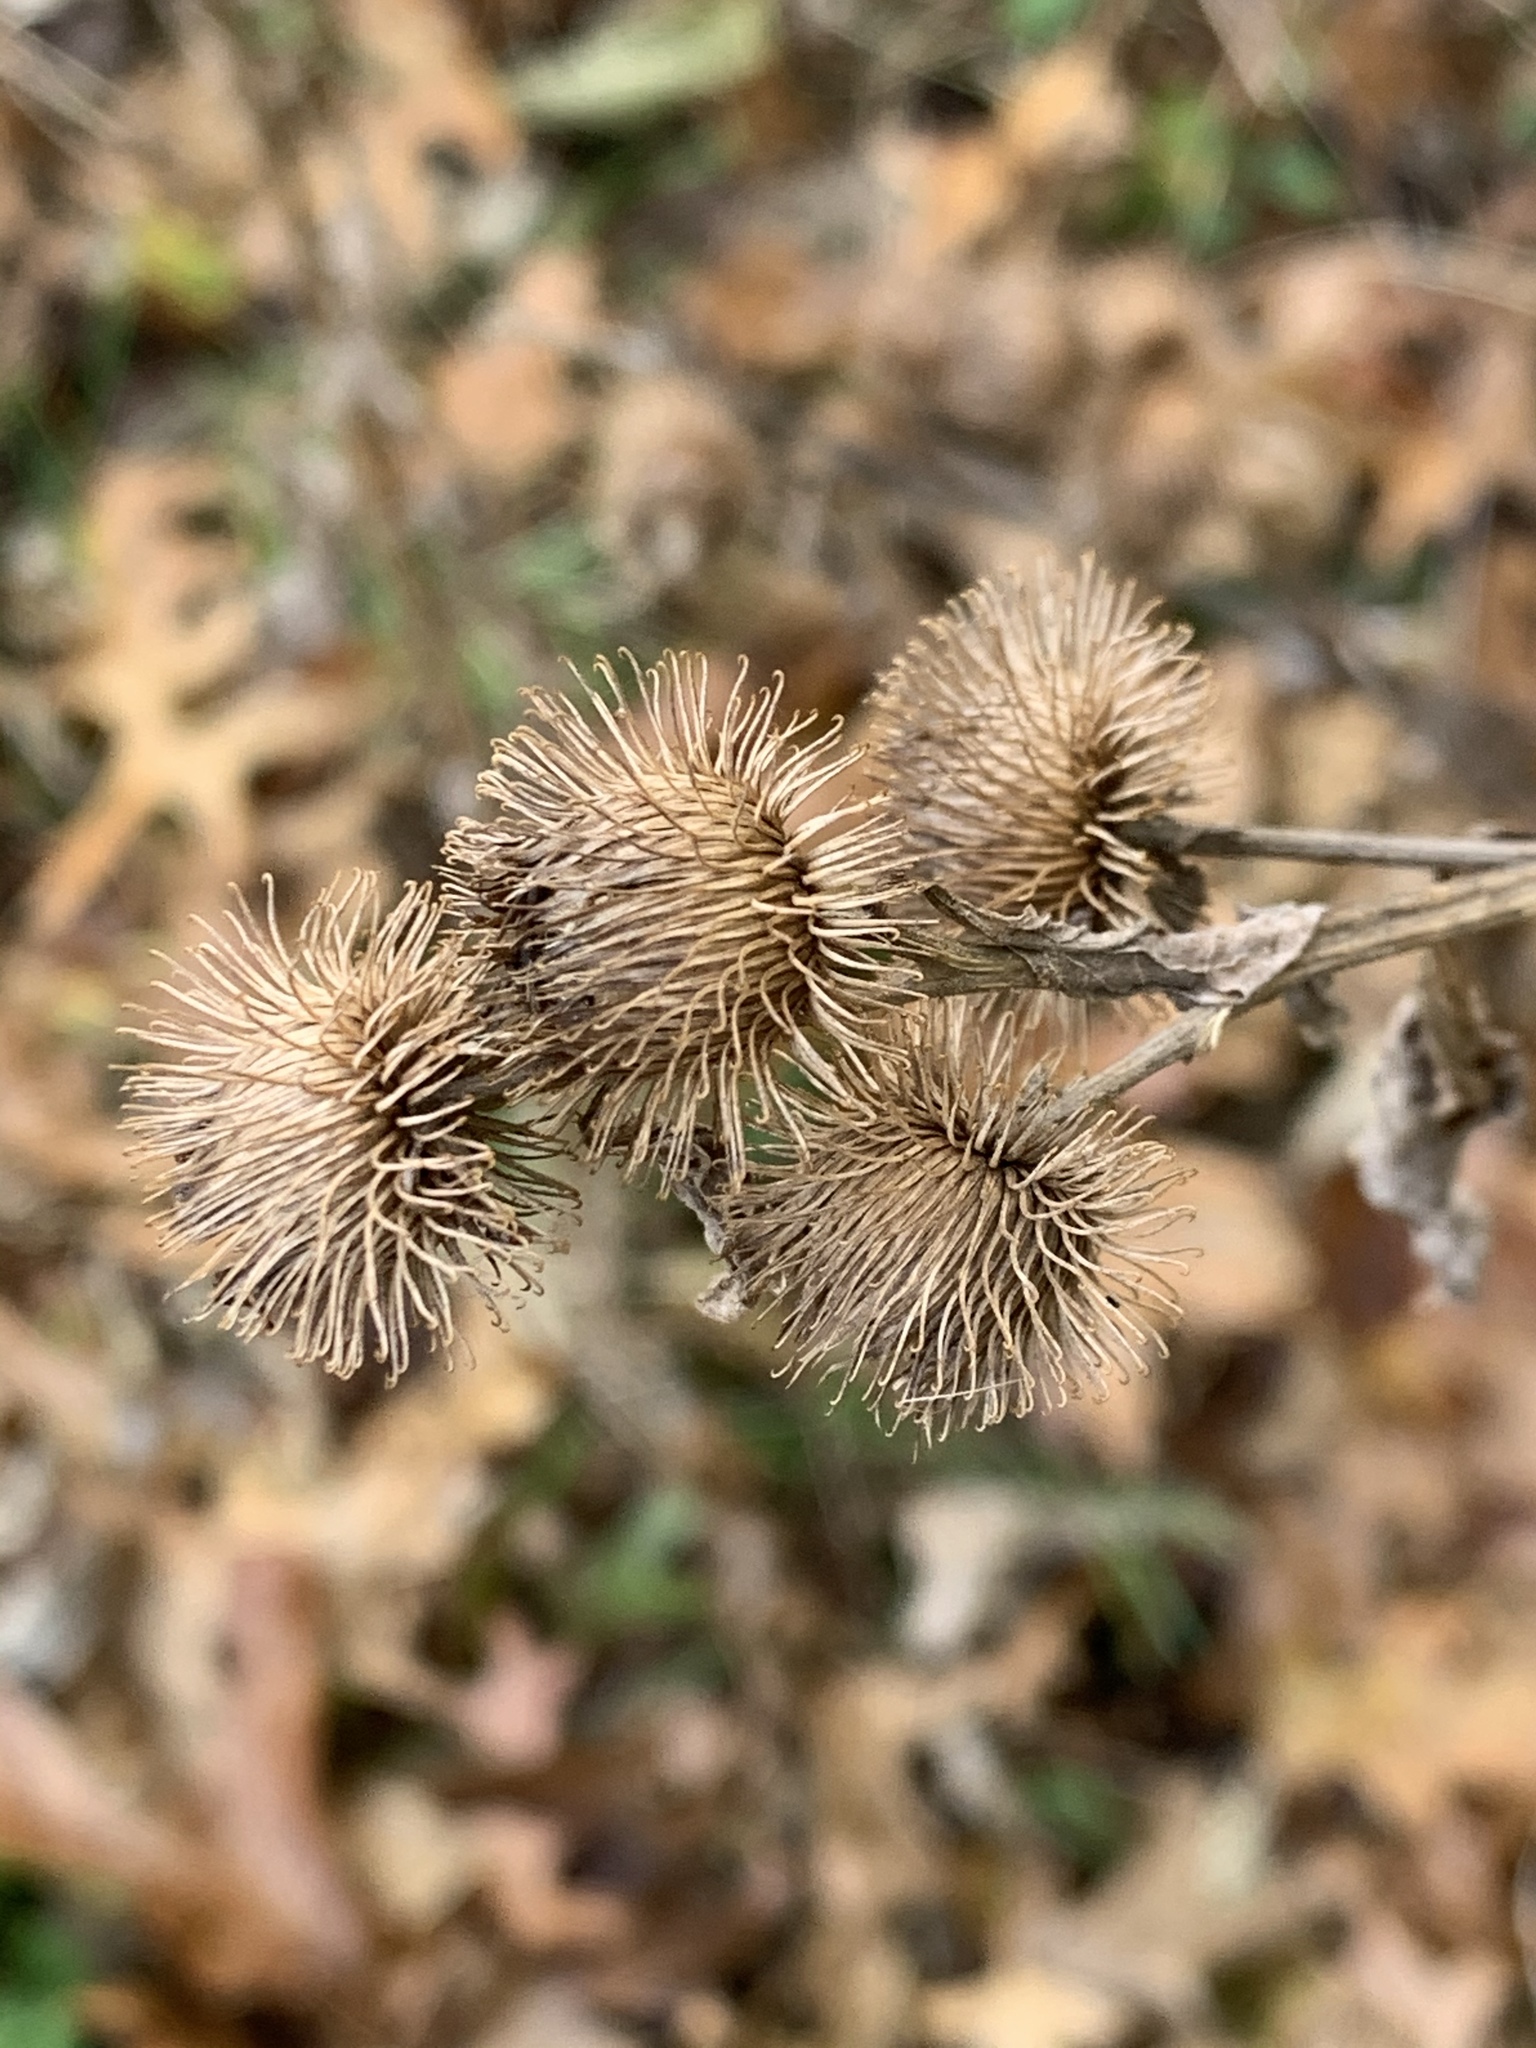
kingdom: Plantae
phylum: Tracheophyta
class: Magnoliopsida
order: Asterales
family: Asteraceae
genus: Arctium
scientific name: Arctium minus
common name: Lesser burdock
